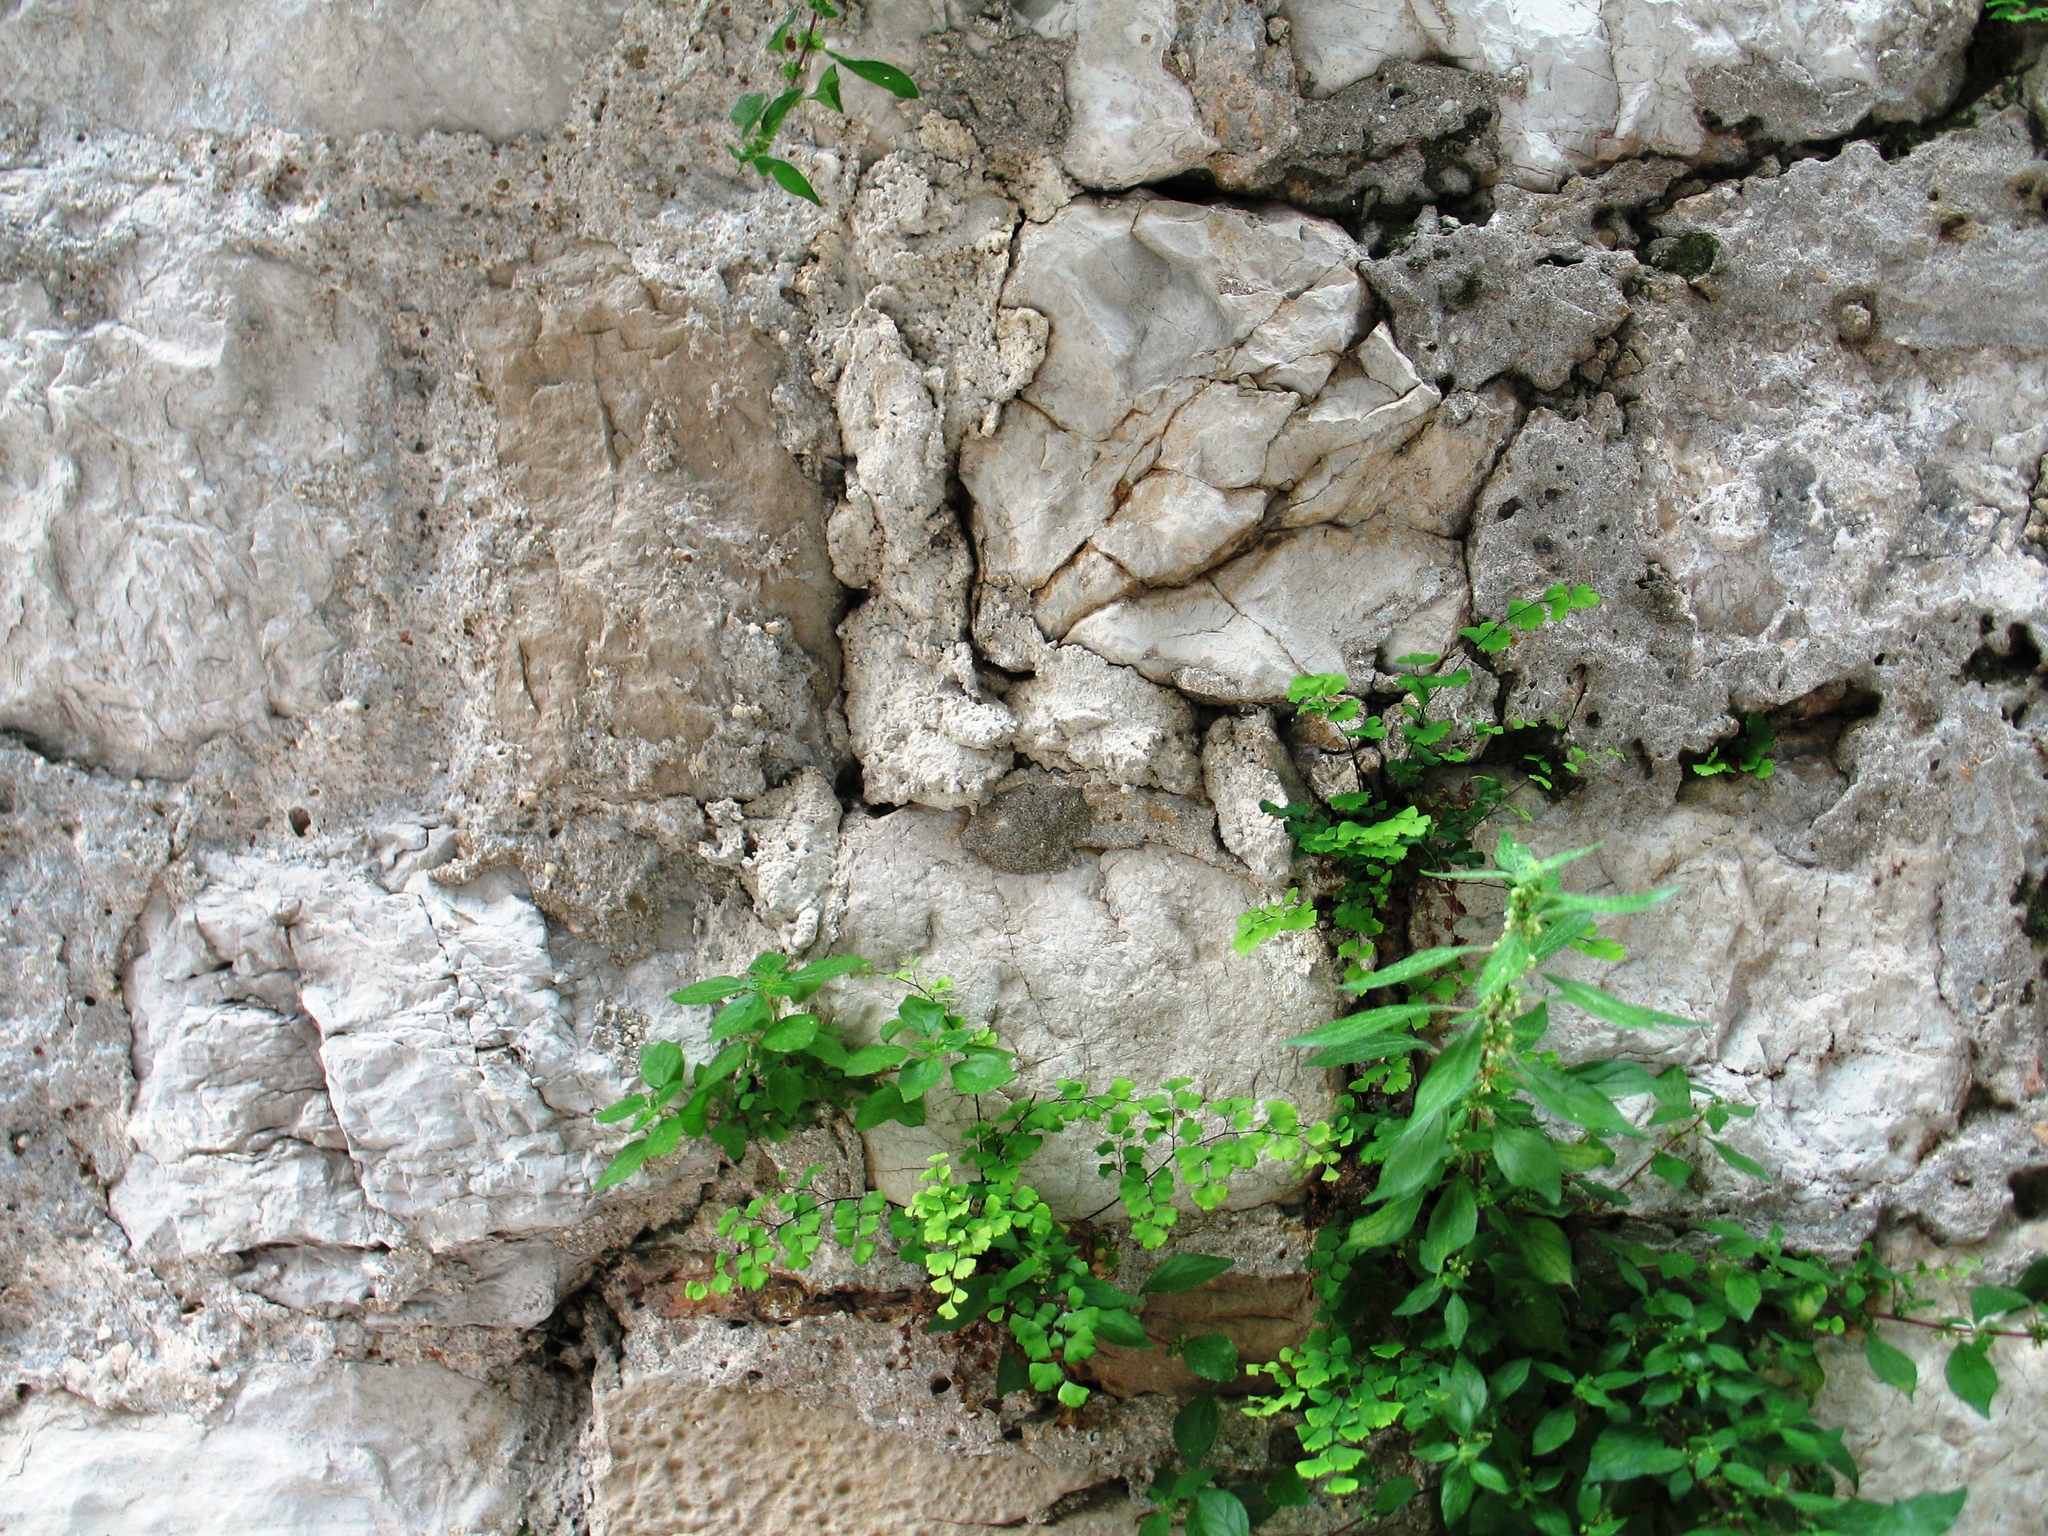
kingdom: Plantae
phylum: Tracheophyta
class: Polypodiopsida
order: Polypodiales
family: Pteridaceae
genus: Adiantum
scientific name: Adiantum capillus-veneris
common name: Maidenhair fern
